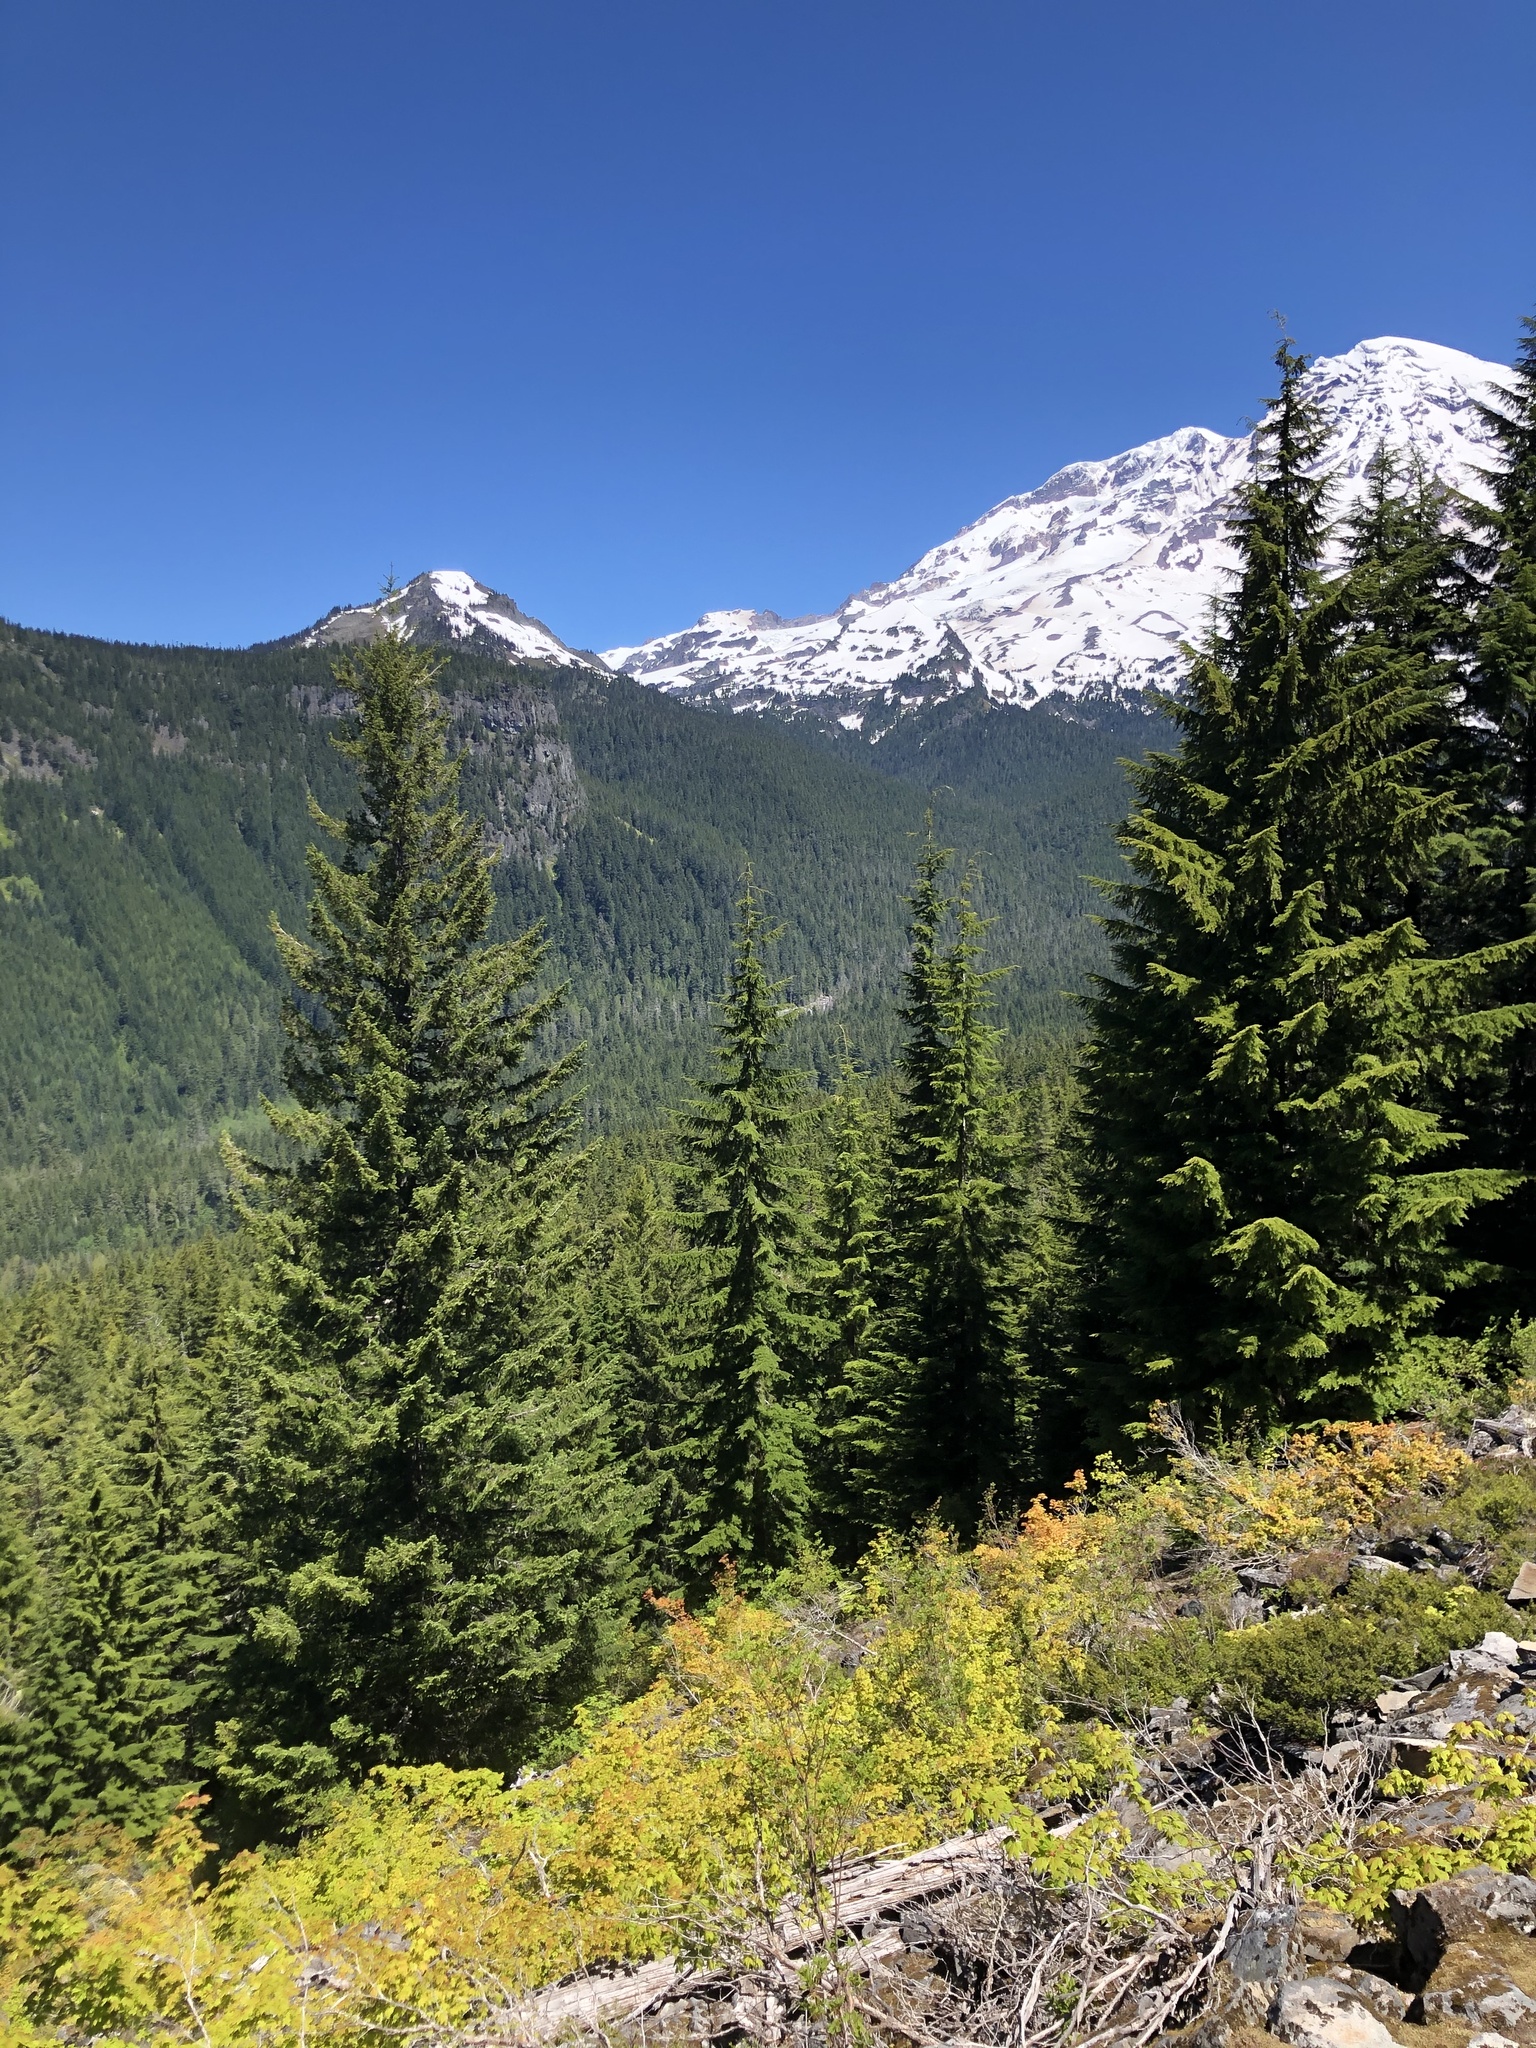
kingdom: Plantae
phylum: Tracheophyta
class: Pinopsida
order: Pinales
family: Pinaceae
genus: Pseudotsuga
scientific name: Pseudotsuga menziesii
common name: Douglas fir
